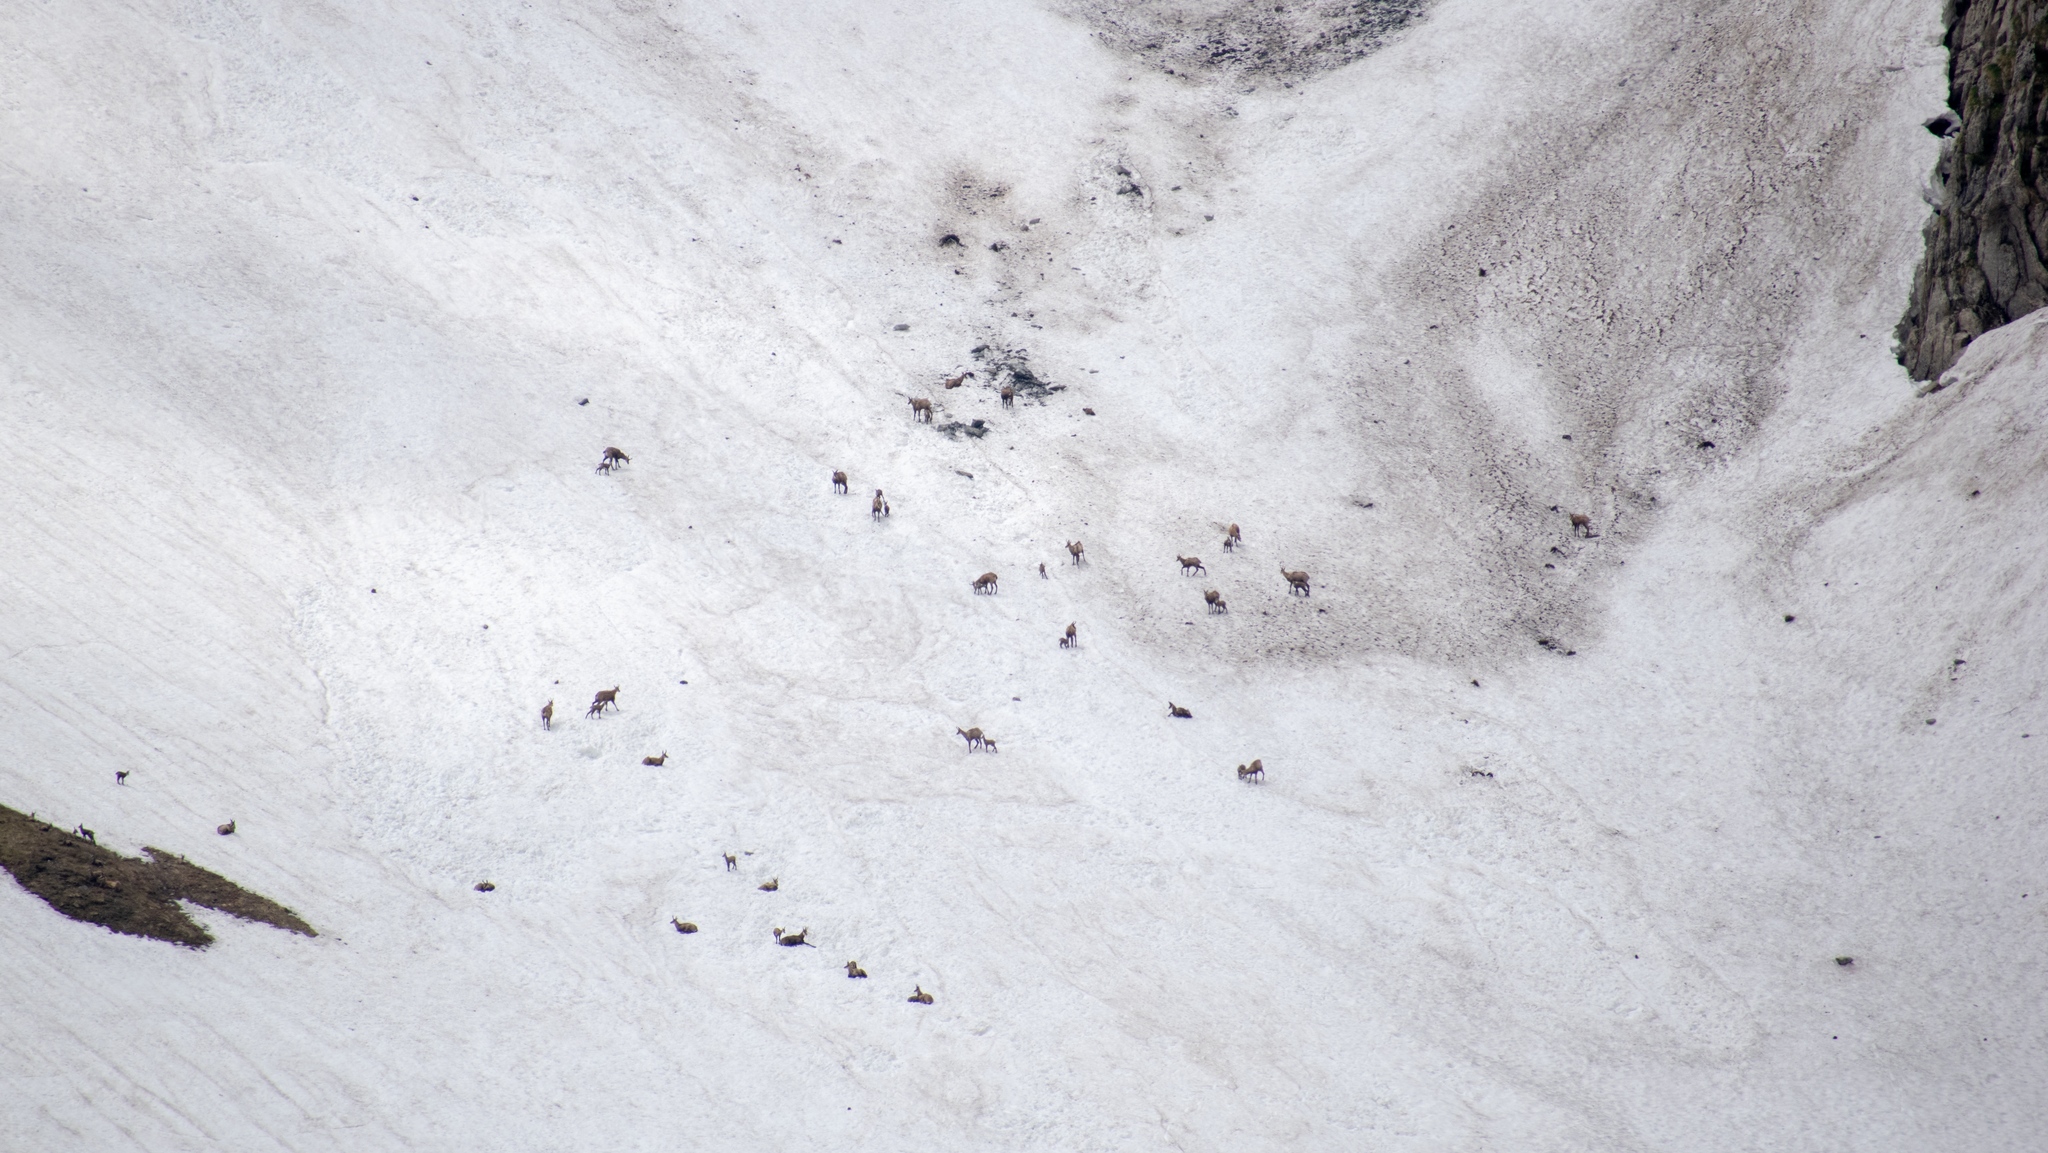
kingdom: Animalia
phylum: Chordata
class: Mammalia
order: Artiodactyla
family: Bovidae
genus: Rupicapra
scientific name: Rupicapra rupicapra
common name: Chamois
